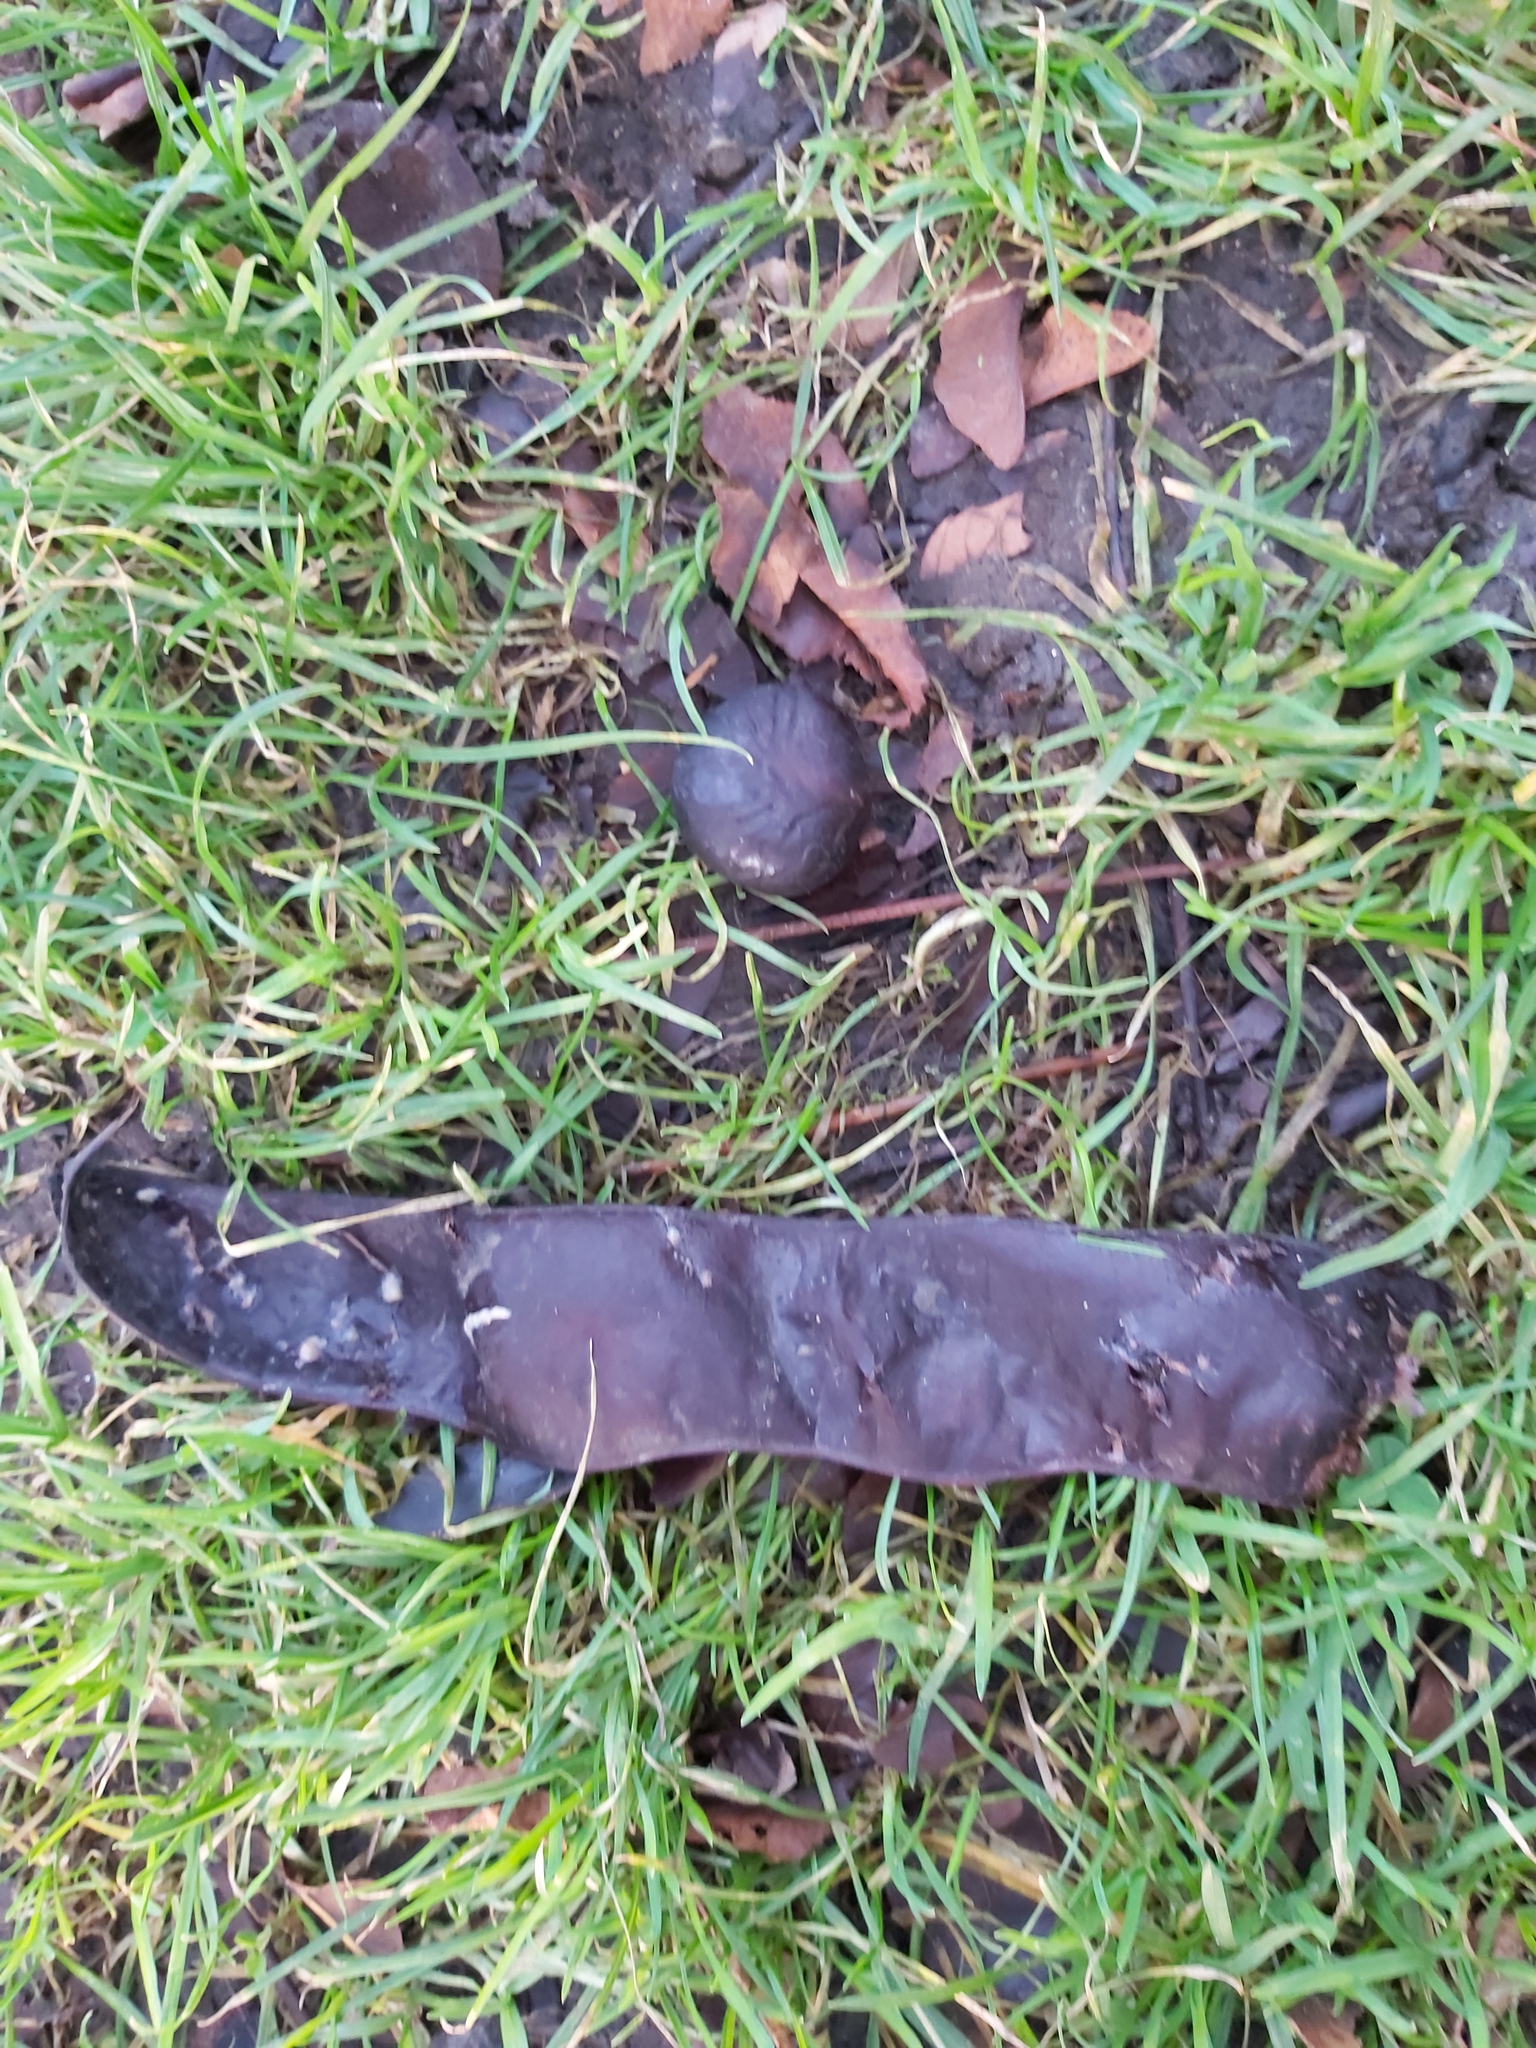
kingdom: Plantae
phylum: Tracheophyta
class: Magnoliopsida
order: Fabales
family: Fabaceae
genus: Gleditsia
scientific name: Gleditsia triacanthos
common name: Common honeylocust
